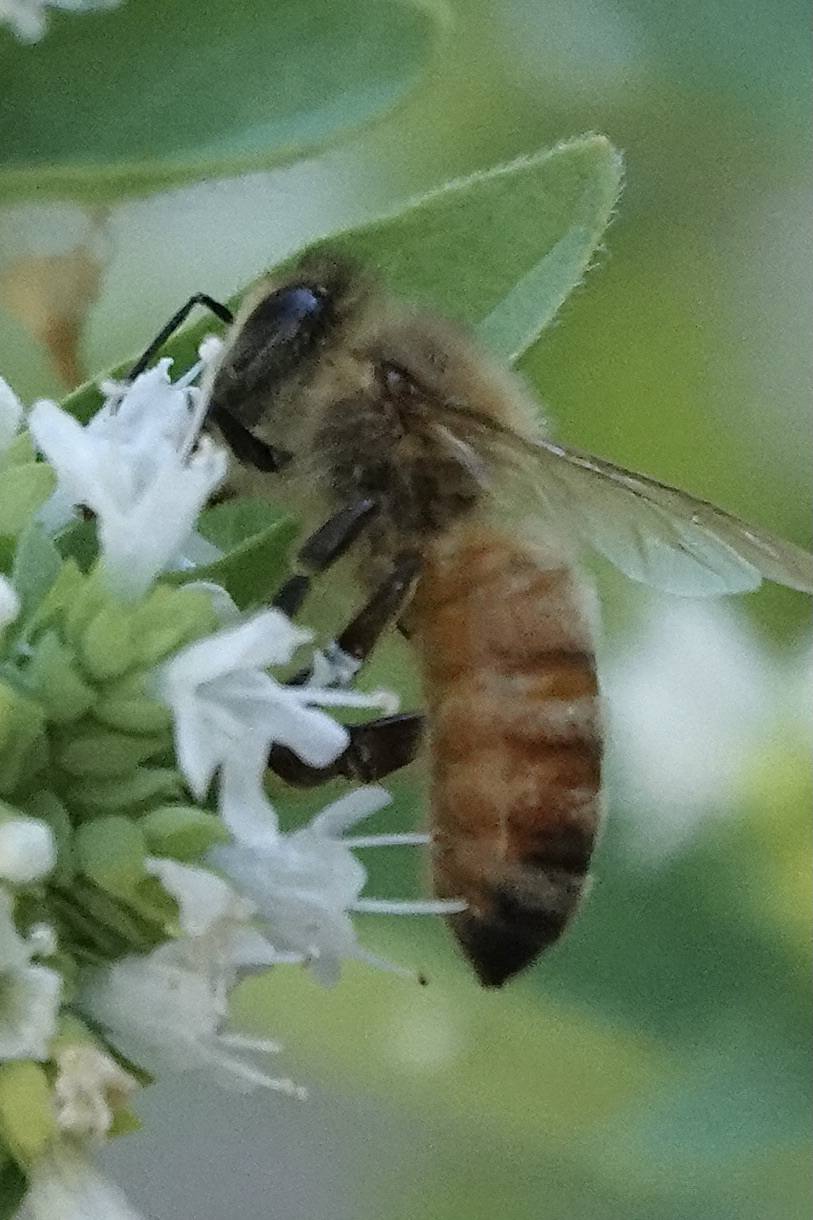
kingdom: Animalia
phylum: Arthropoda
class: Insecta
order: Hymenoptera
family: Apidae
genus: Apis
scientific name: Apis mellifera
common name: Honey bee
